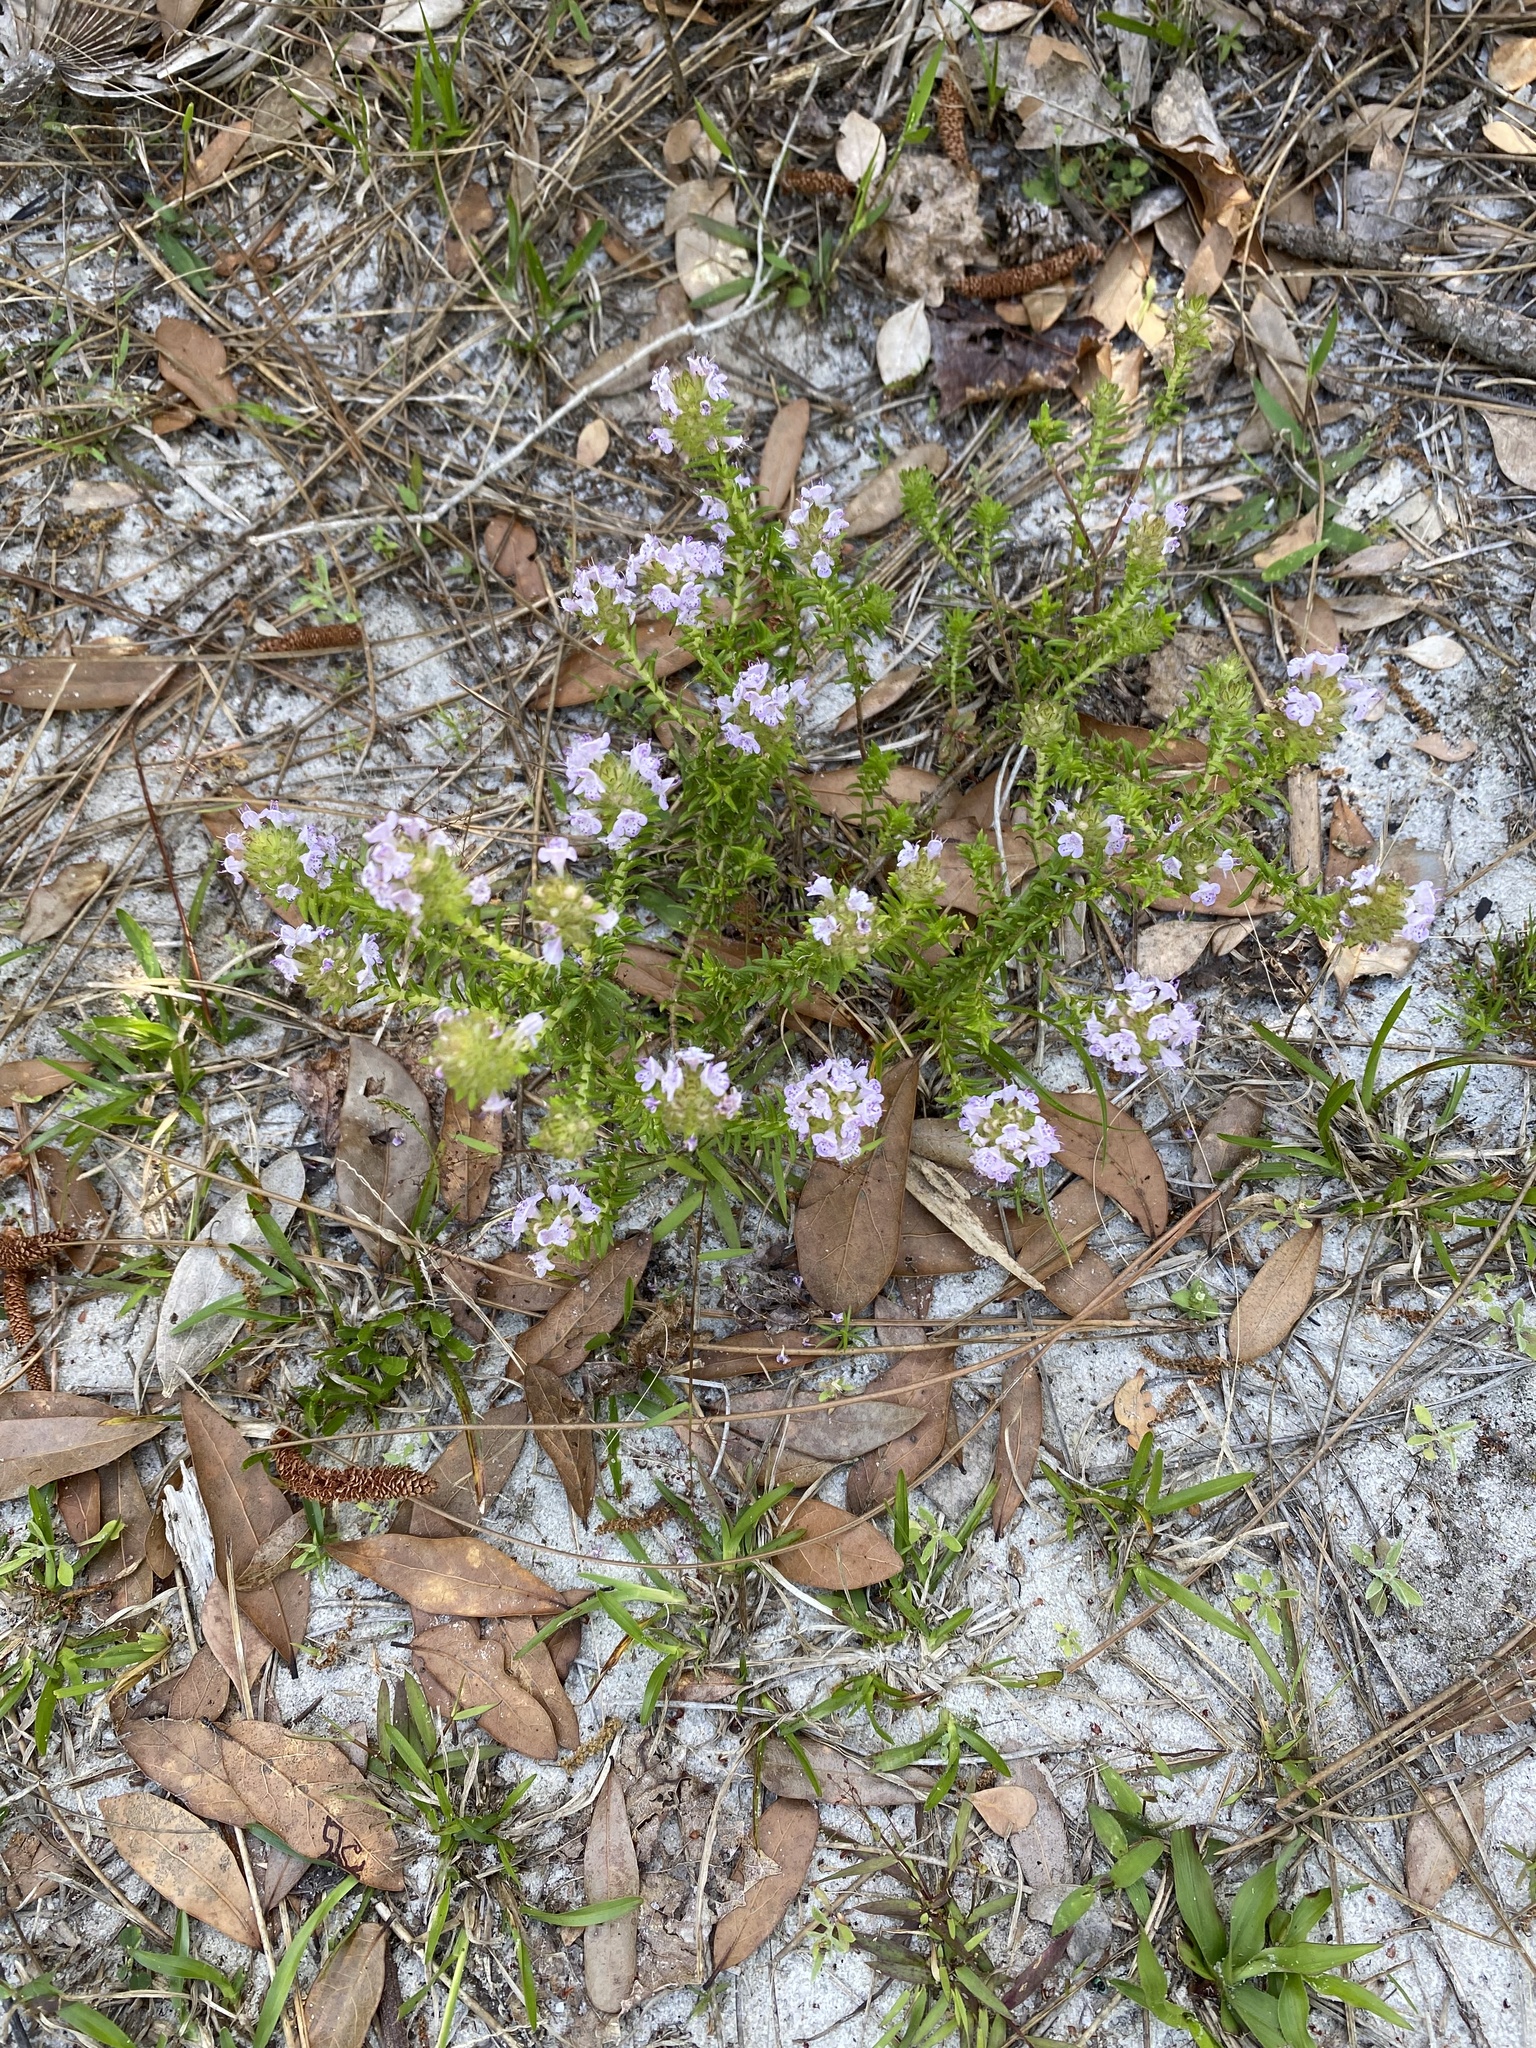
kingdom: Plantae
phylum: Tracheophyta
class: Magnoliopsida
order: Lamiales
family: Lamiaceae
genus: Piloblephis
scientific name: Piloblephis rigida
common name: Wild pennyroyal
